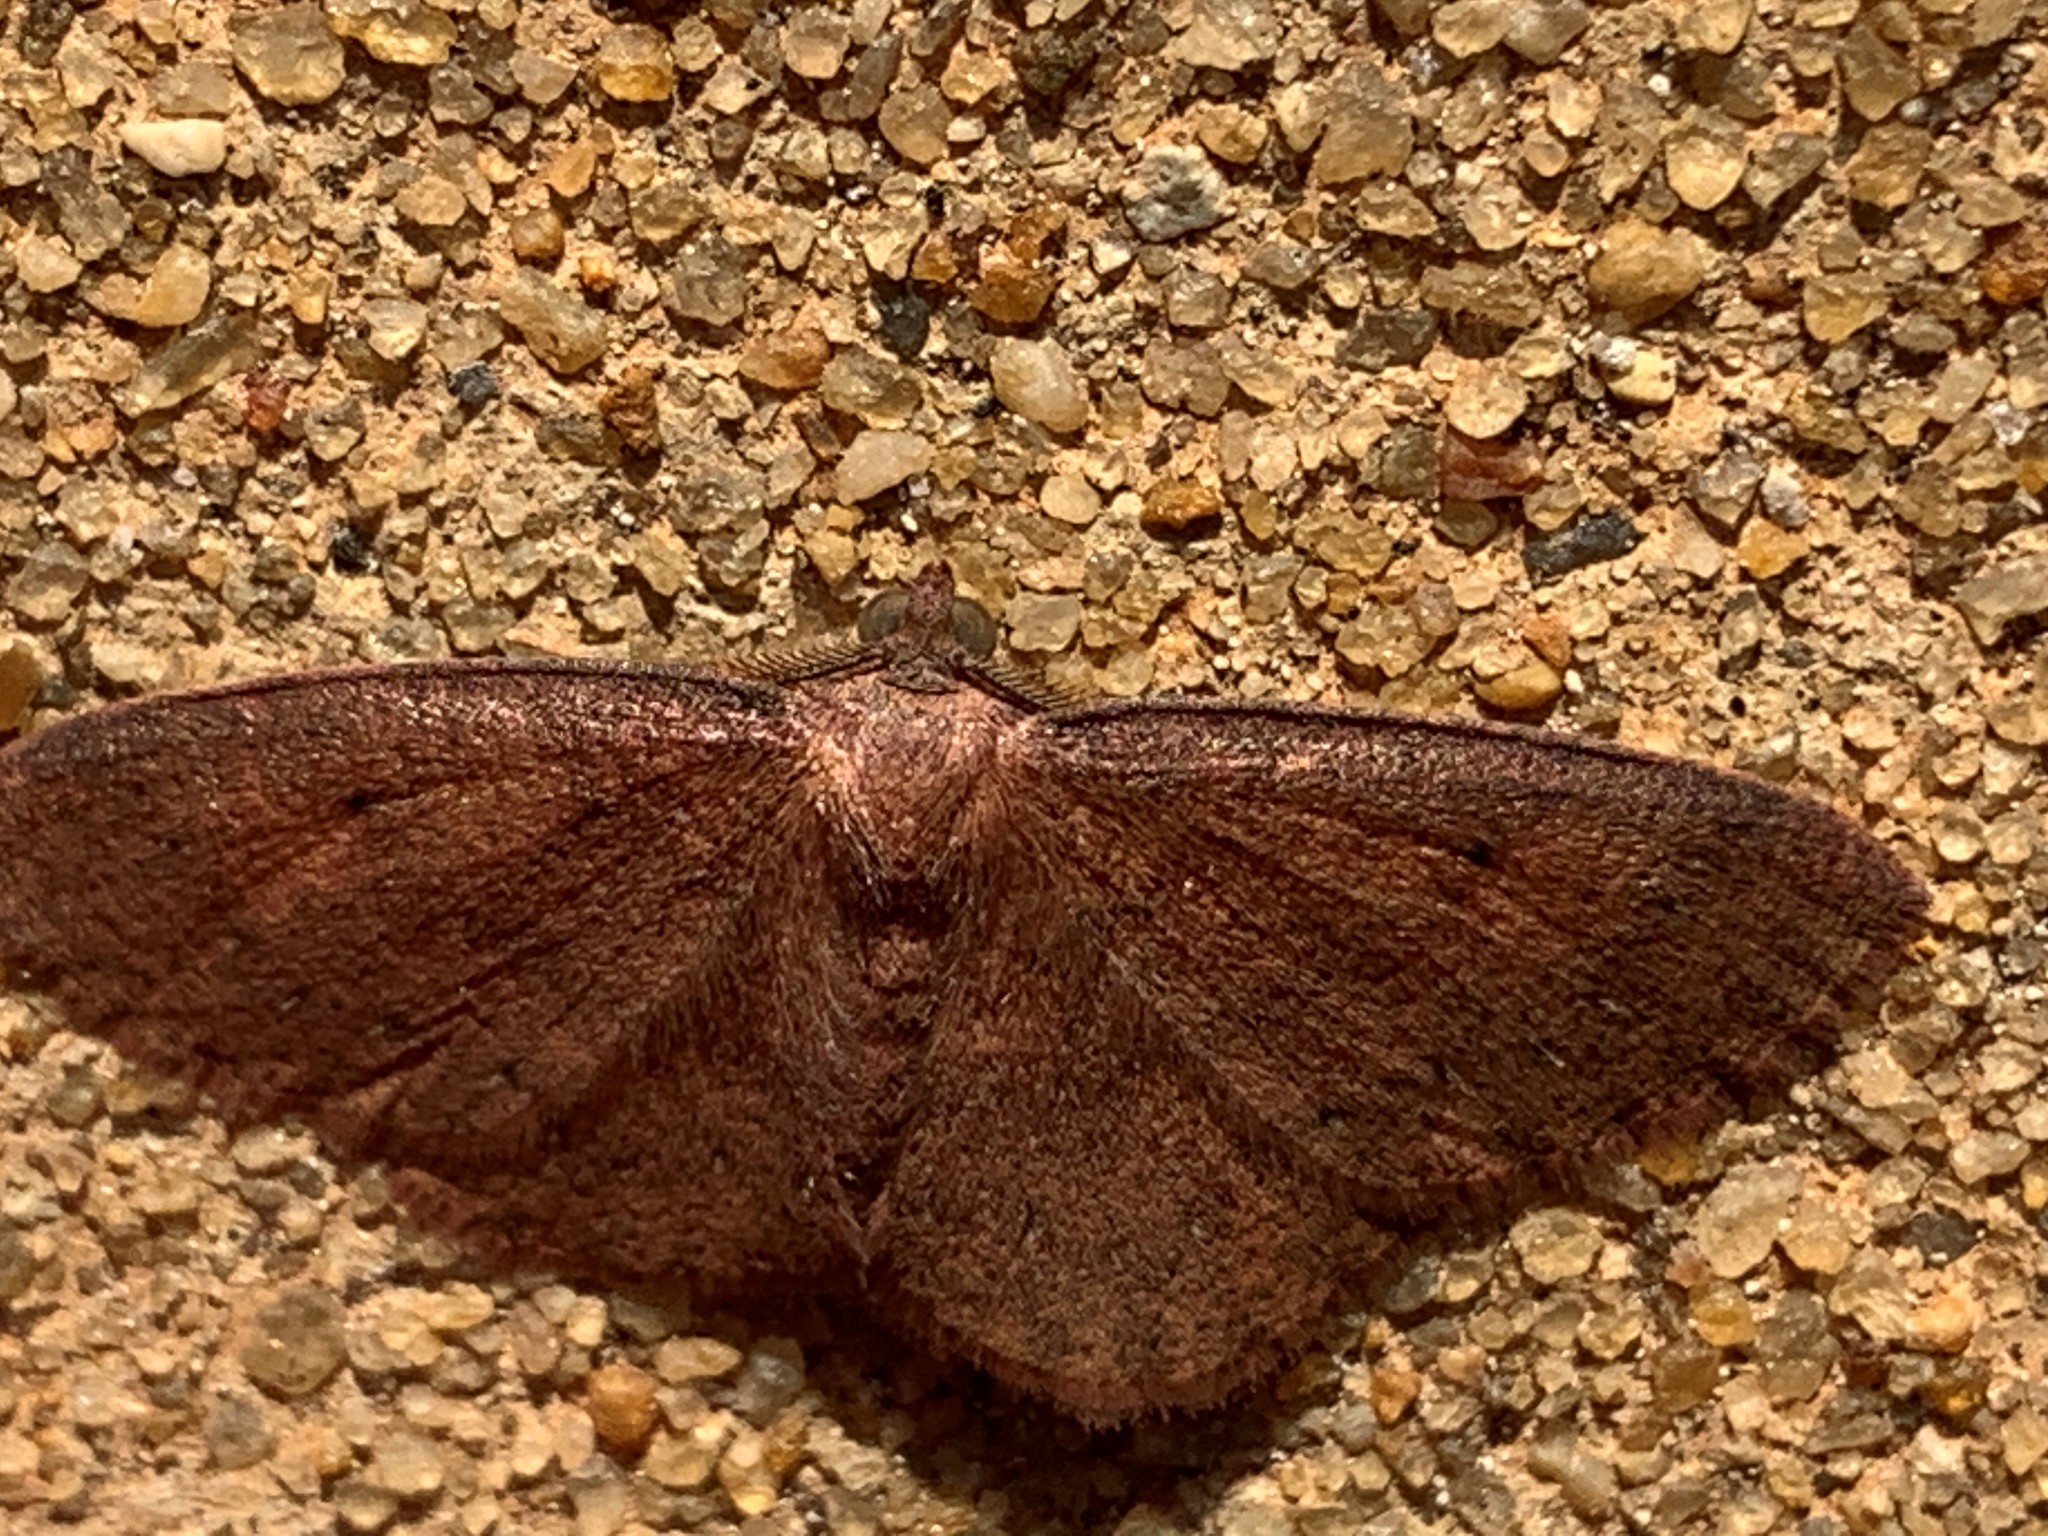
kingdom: Animalia
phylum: Arthropoda
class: Insecta
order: Lepidoptera
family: Geometridae
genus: Ilexia
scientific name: Ilexia intractata
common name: Black-dotted ruddy moth
